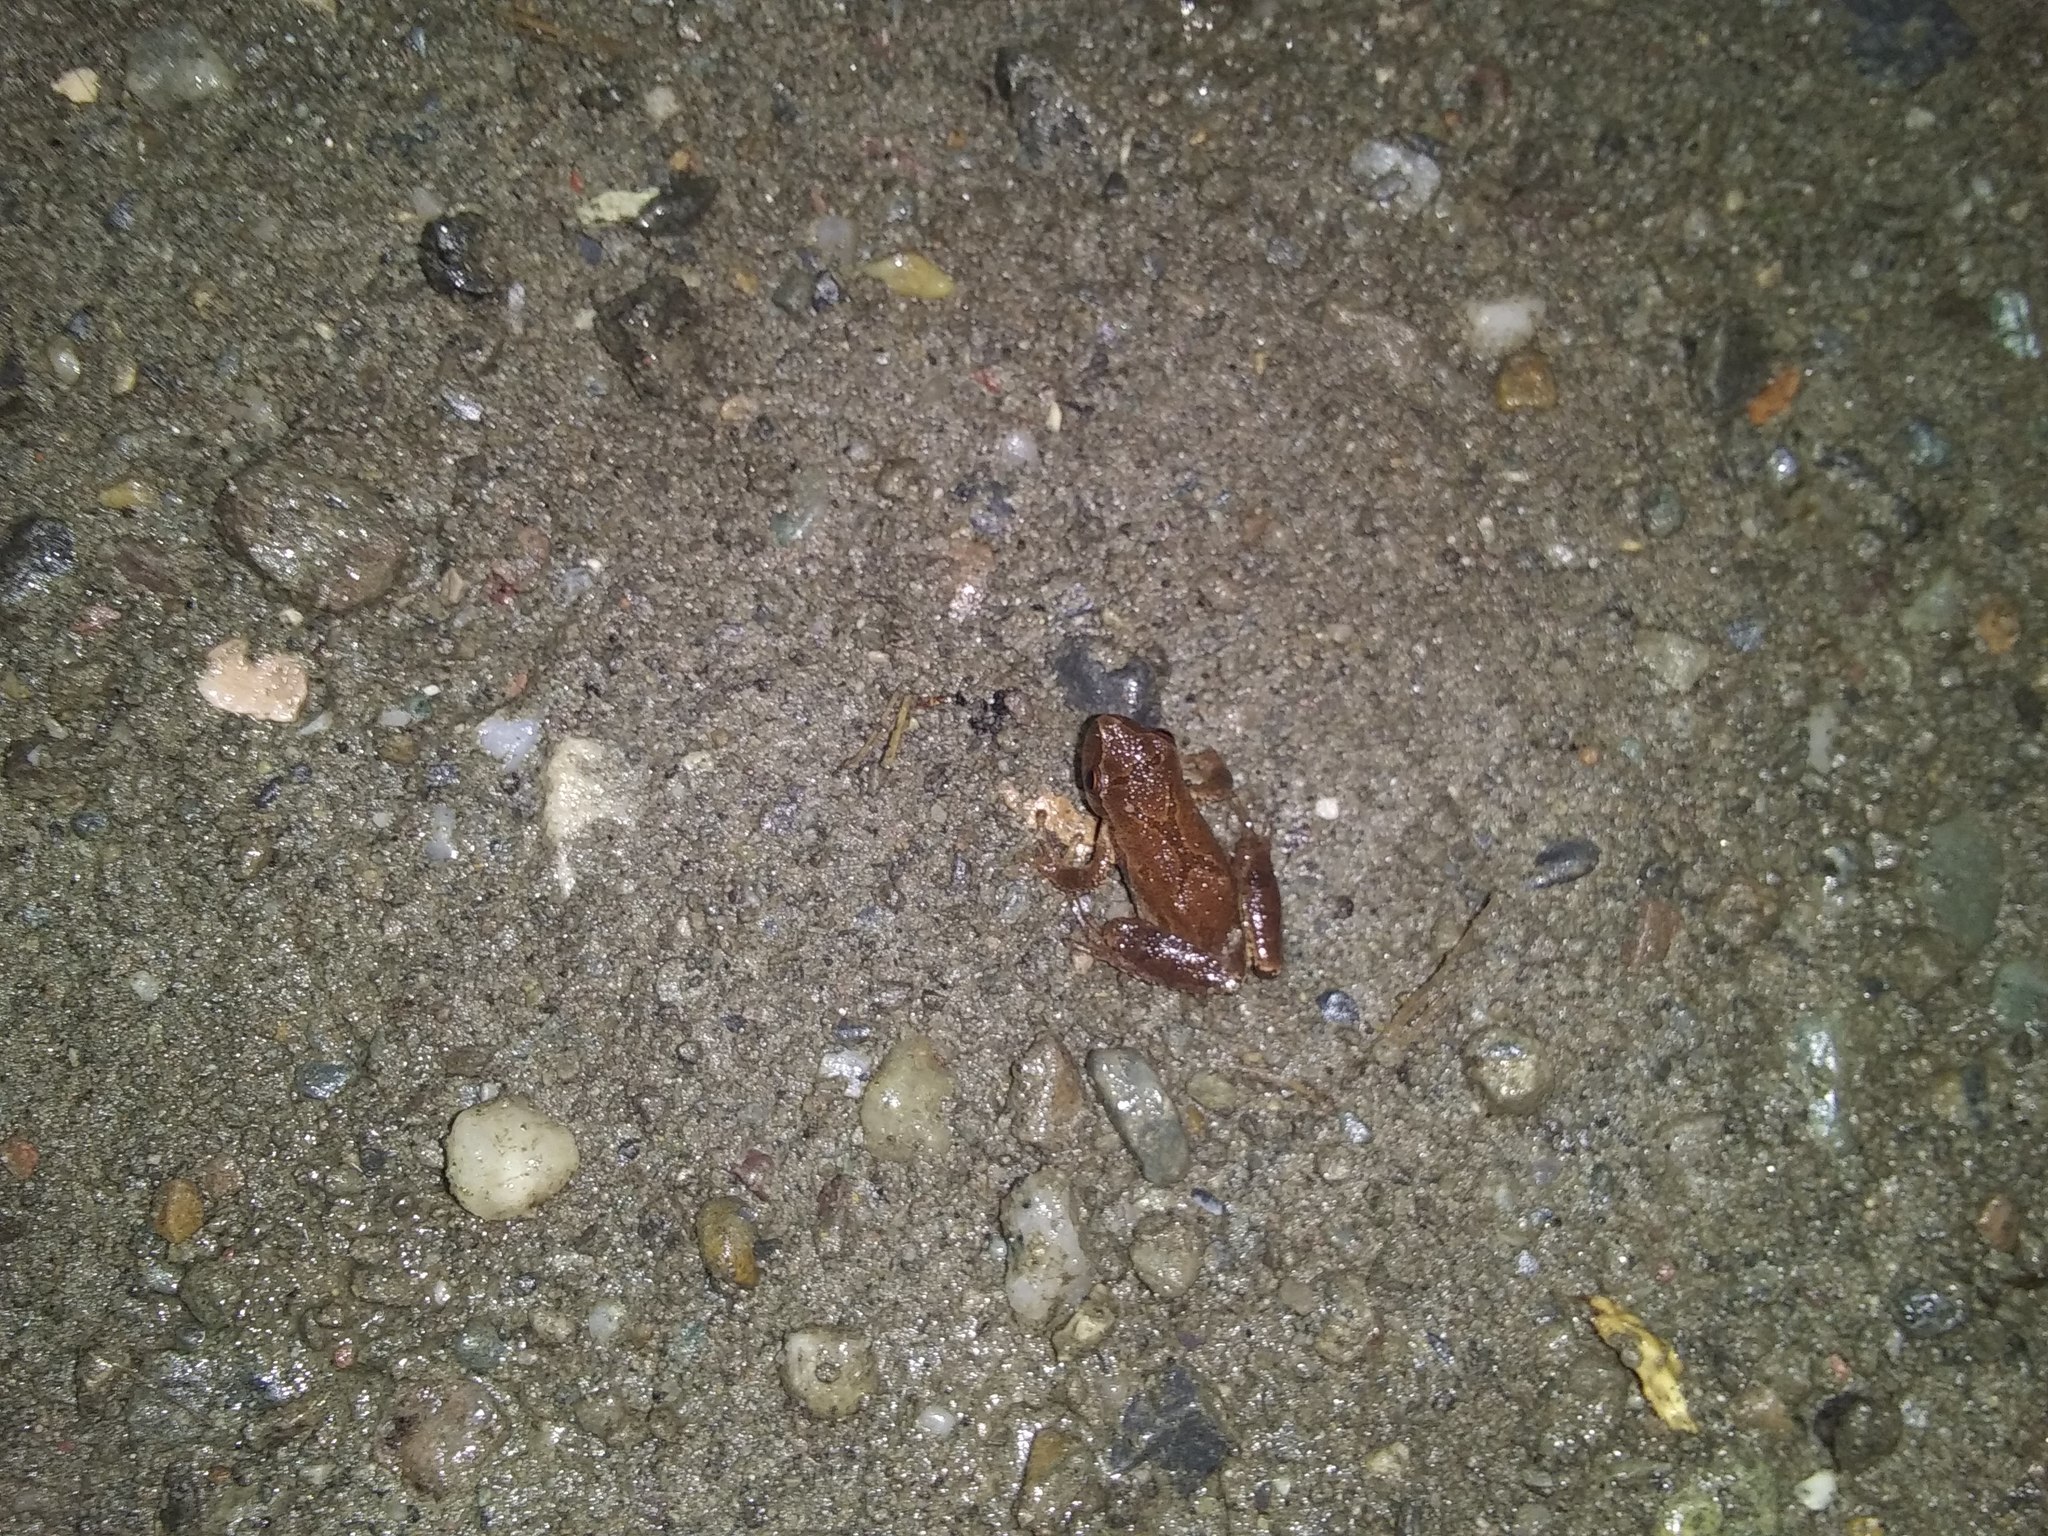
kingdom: Animalia
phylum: Chordata
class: Amphibia
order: Anura
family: Hylidae
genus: Pseudacris
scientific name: Pseudacris crucifer
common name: Spring peeper
